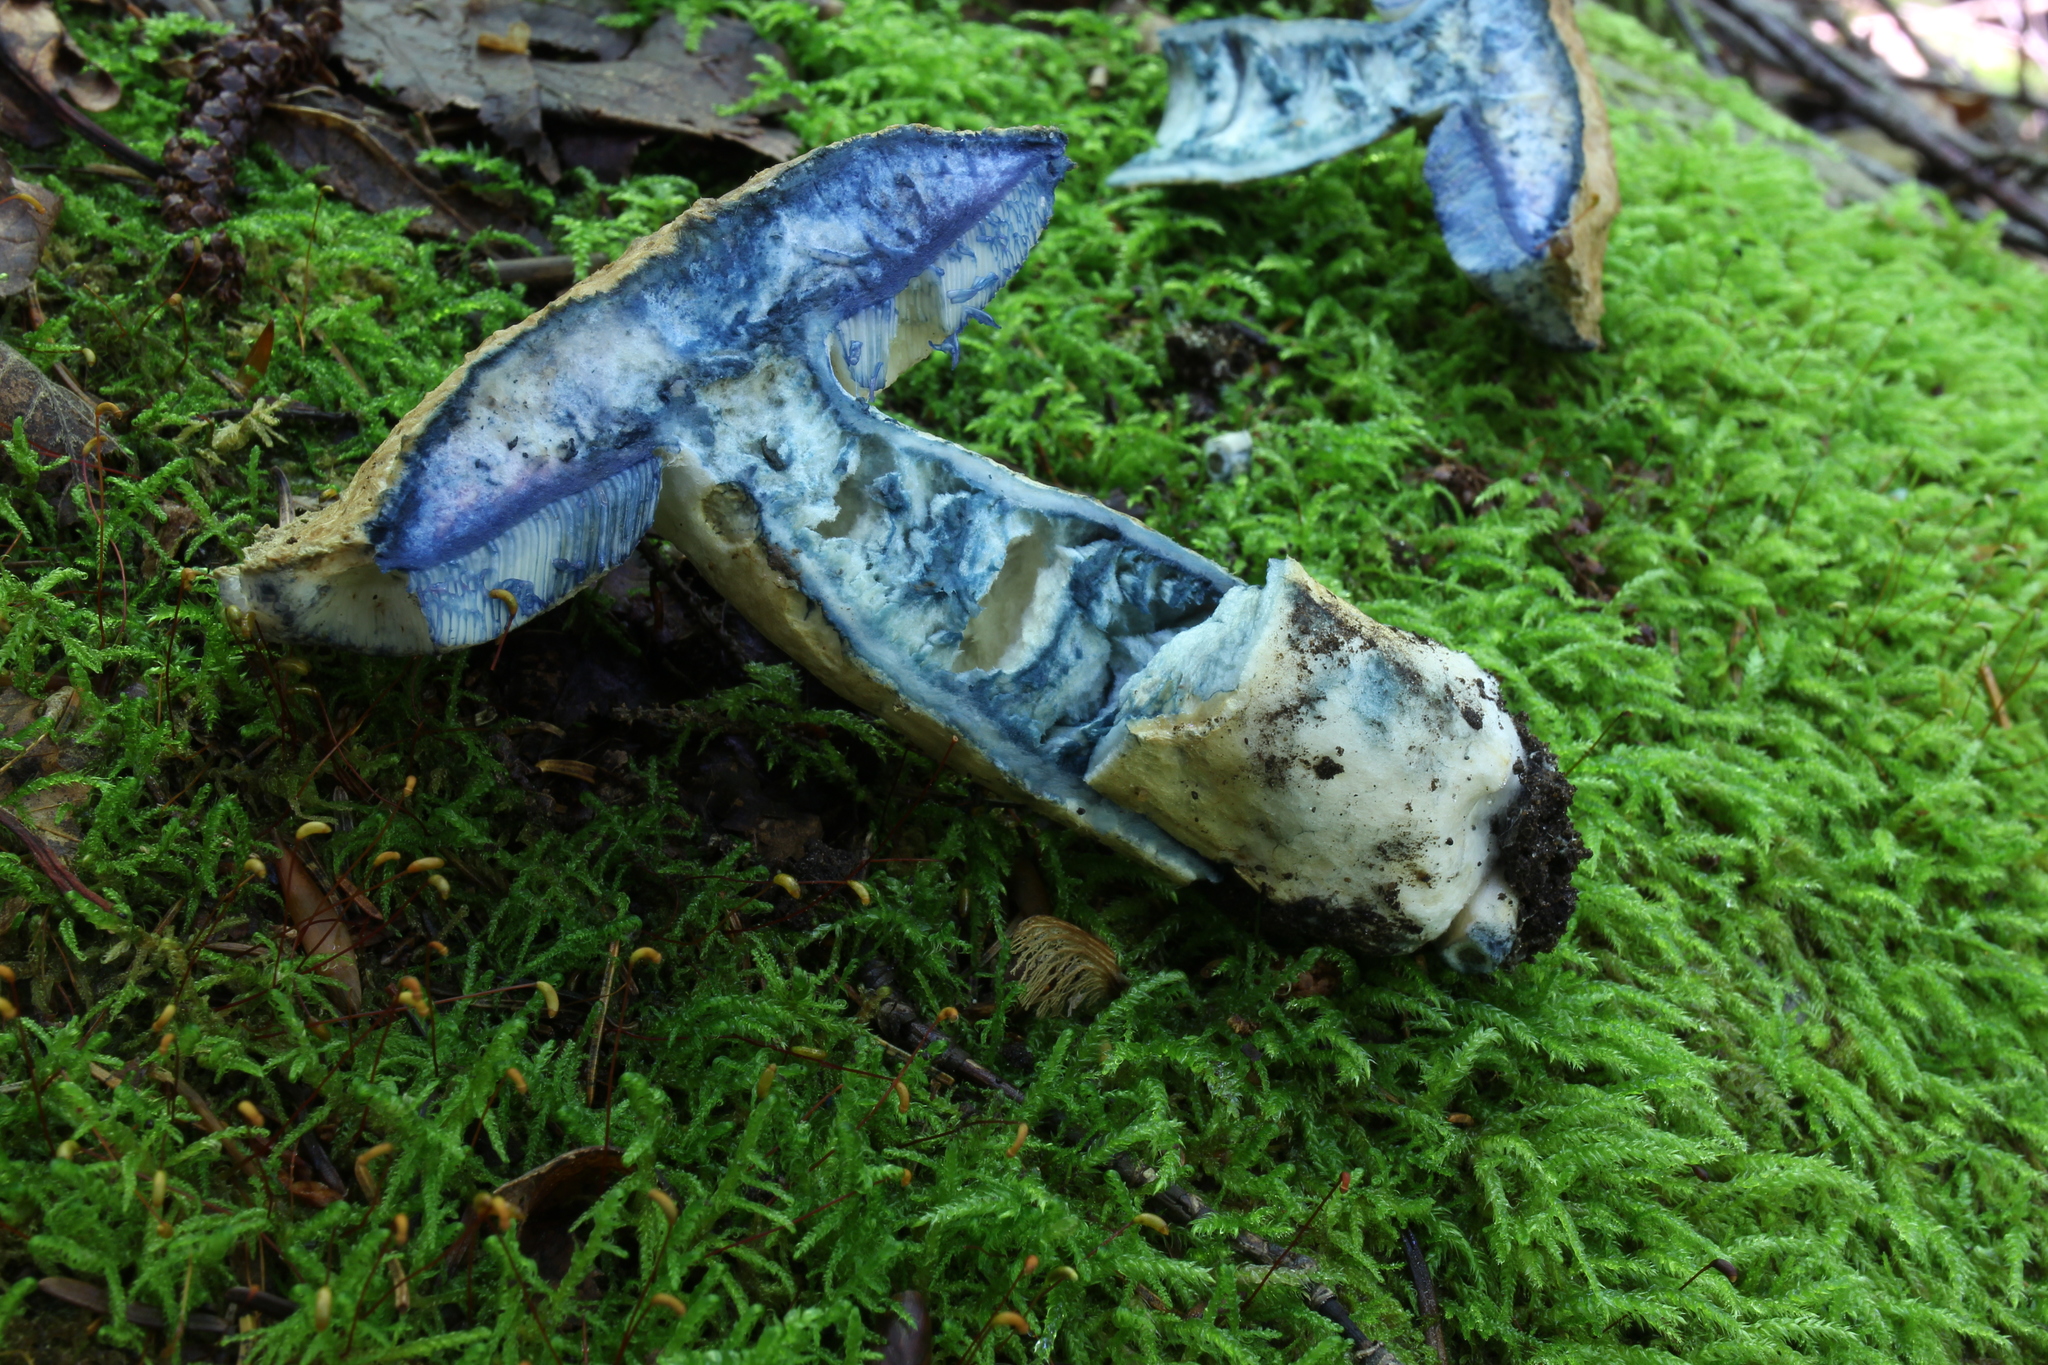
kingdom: Fungi
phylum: Basidiomycota
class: Agaricomycetes
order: Boletales
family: Gyroporaceae
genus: Gyroporus
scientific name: Gyroporus cyanescens
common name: Cornflower bolete
